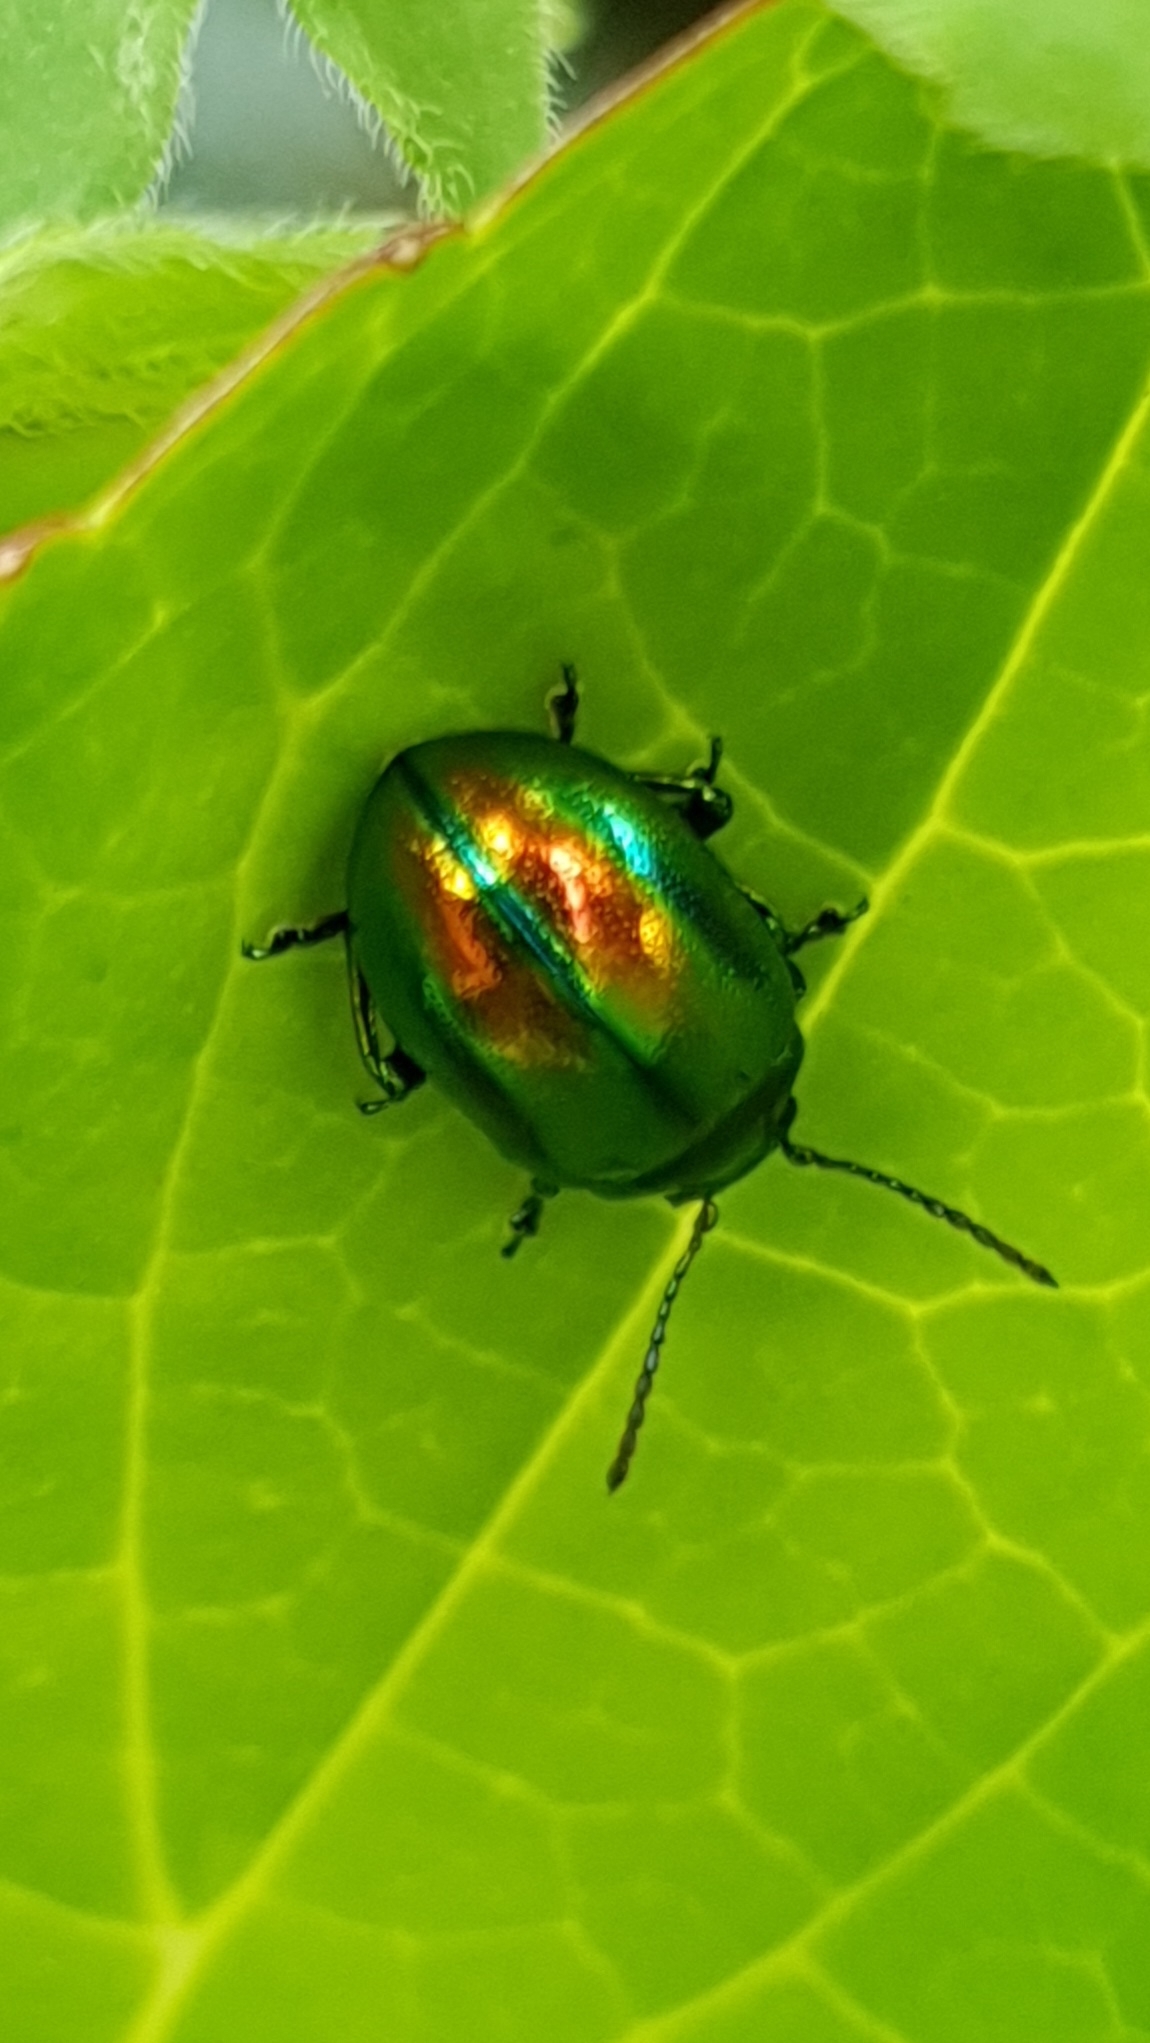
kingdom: Animalia
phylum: Arthropoda
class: Insecta
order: Coleoptera
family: Chrysomelidae
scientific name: Chrysomelidae
